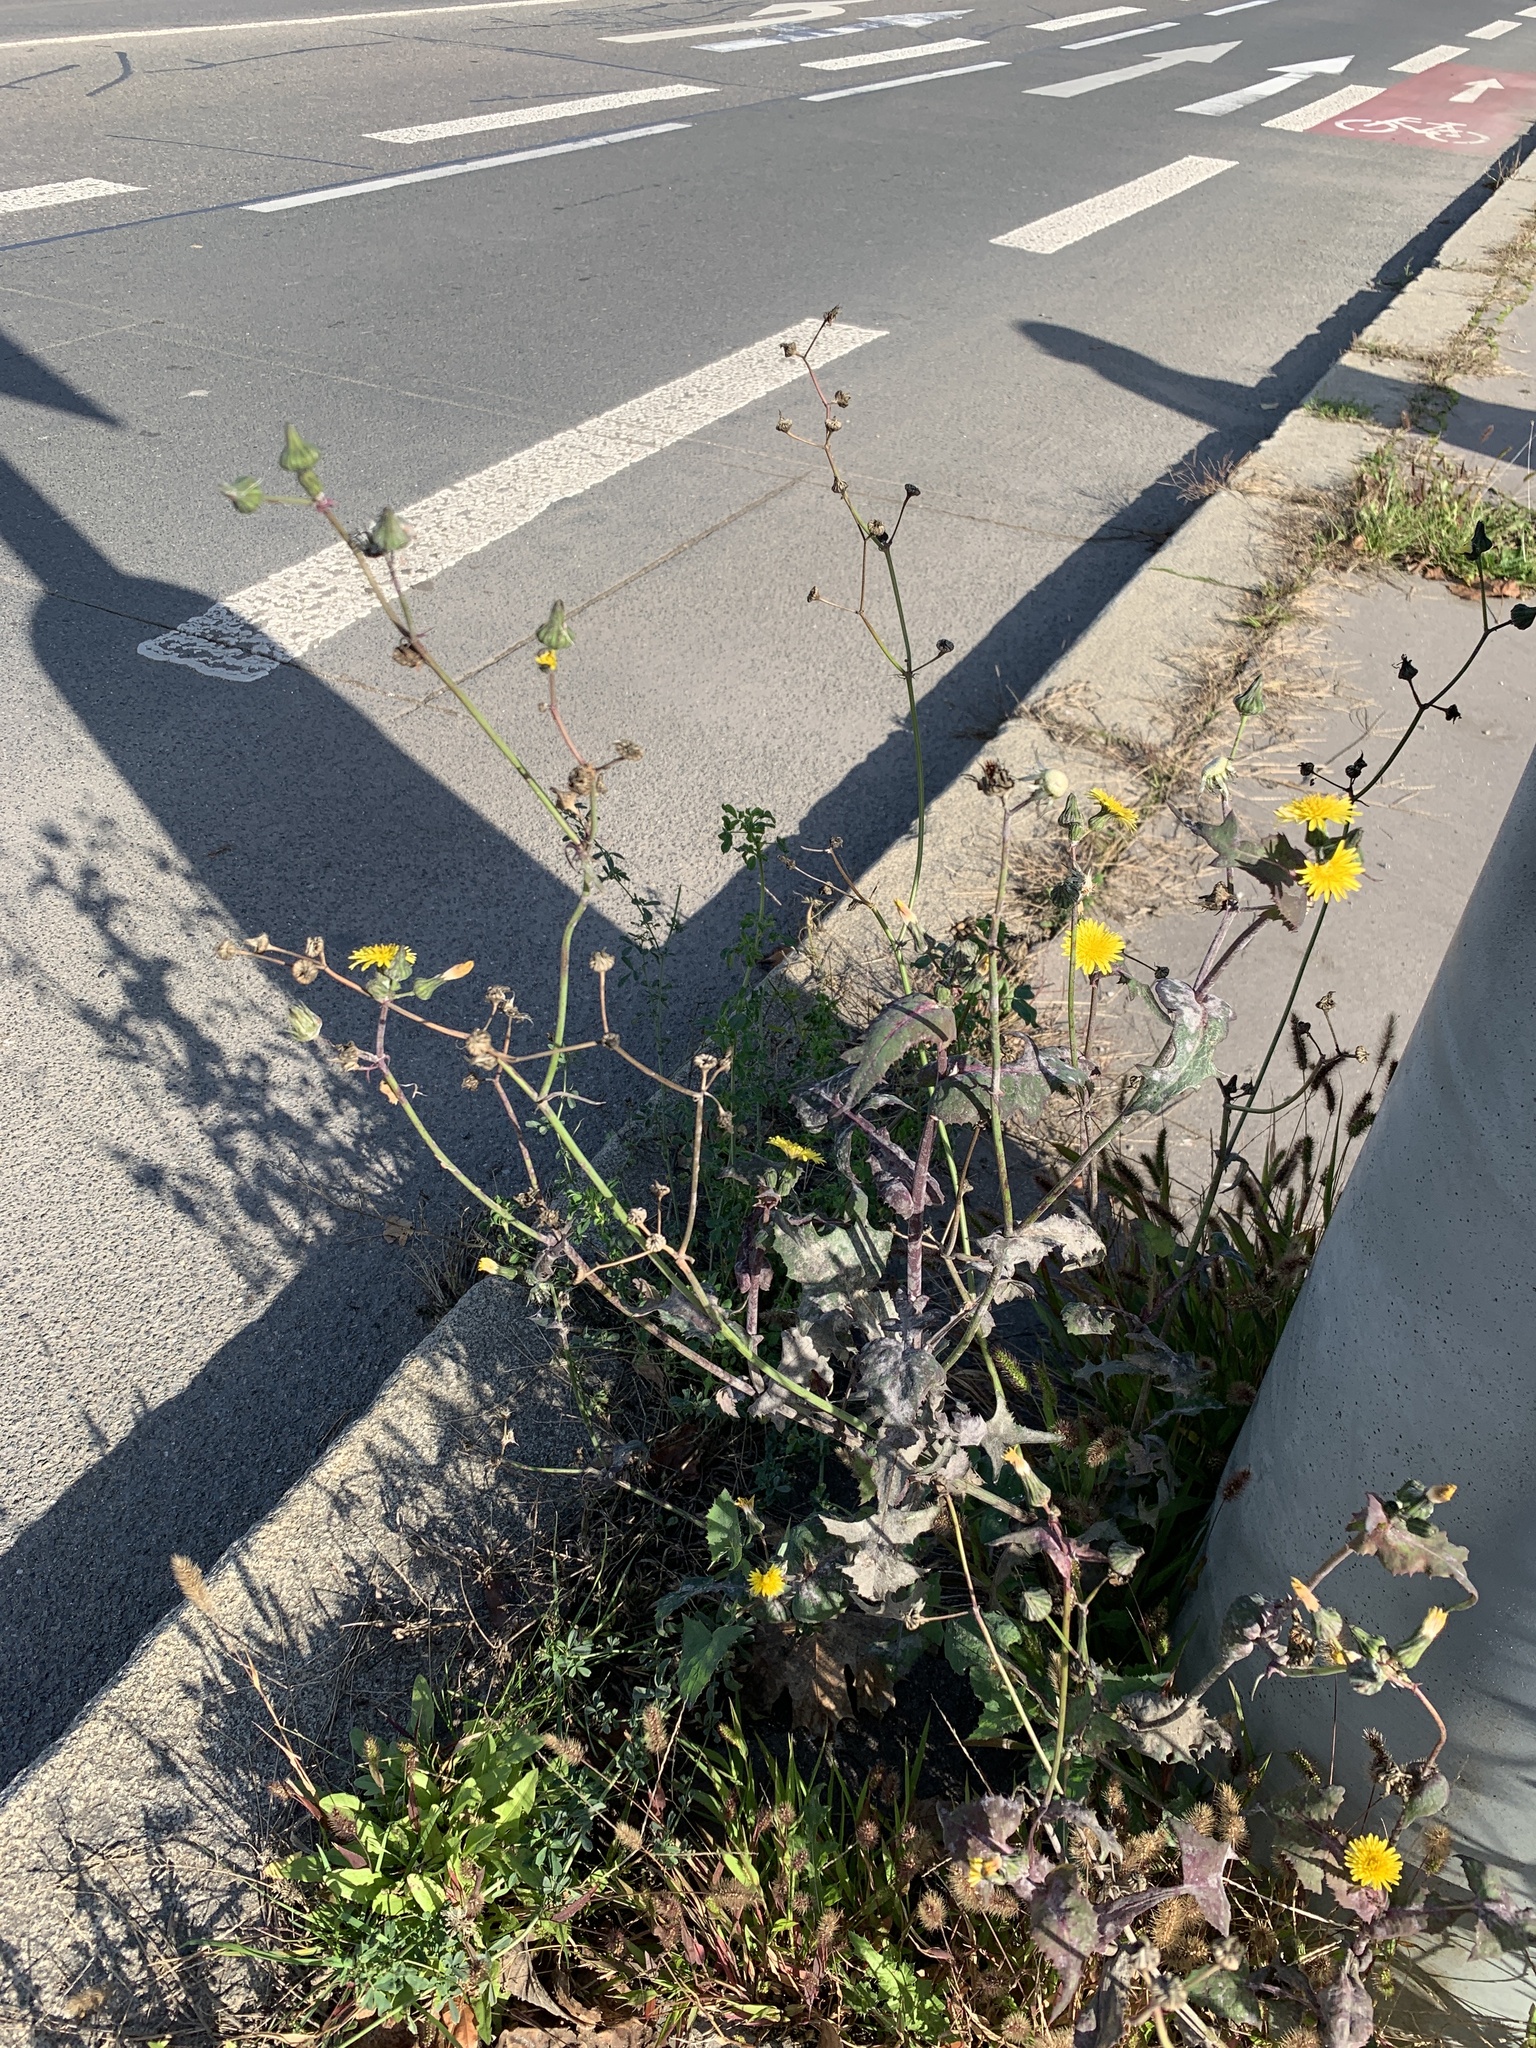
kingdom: Plantae
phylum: Tracheophyta
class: Magnoliopsida
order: Asterales
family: Asteraceae
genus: Sonchus
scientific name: Sonchus oleraceus
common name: Common sowthistle
